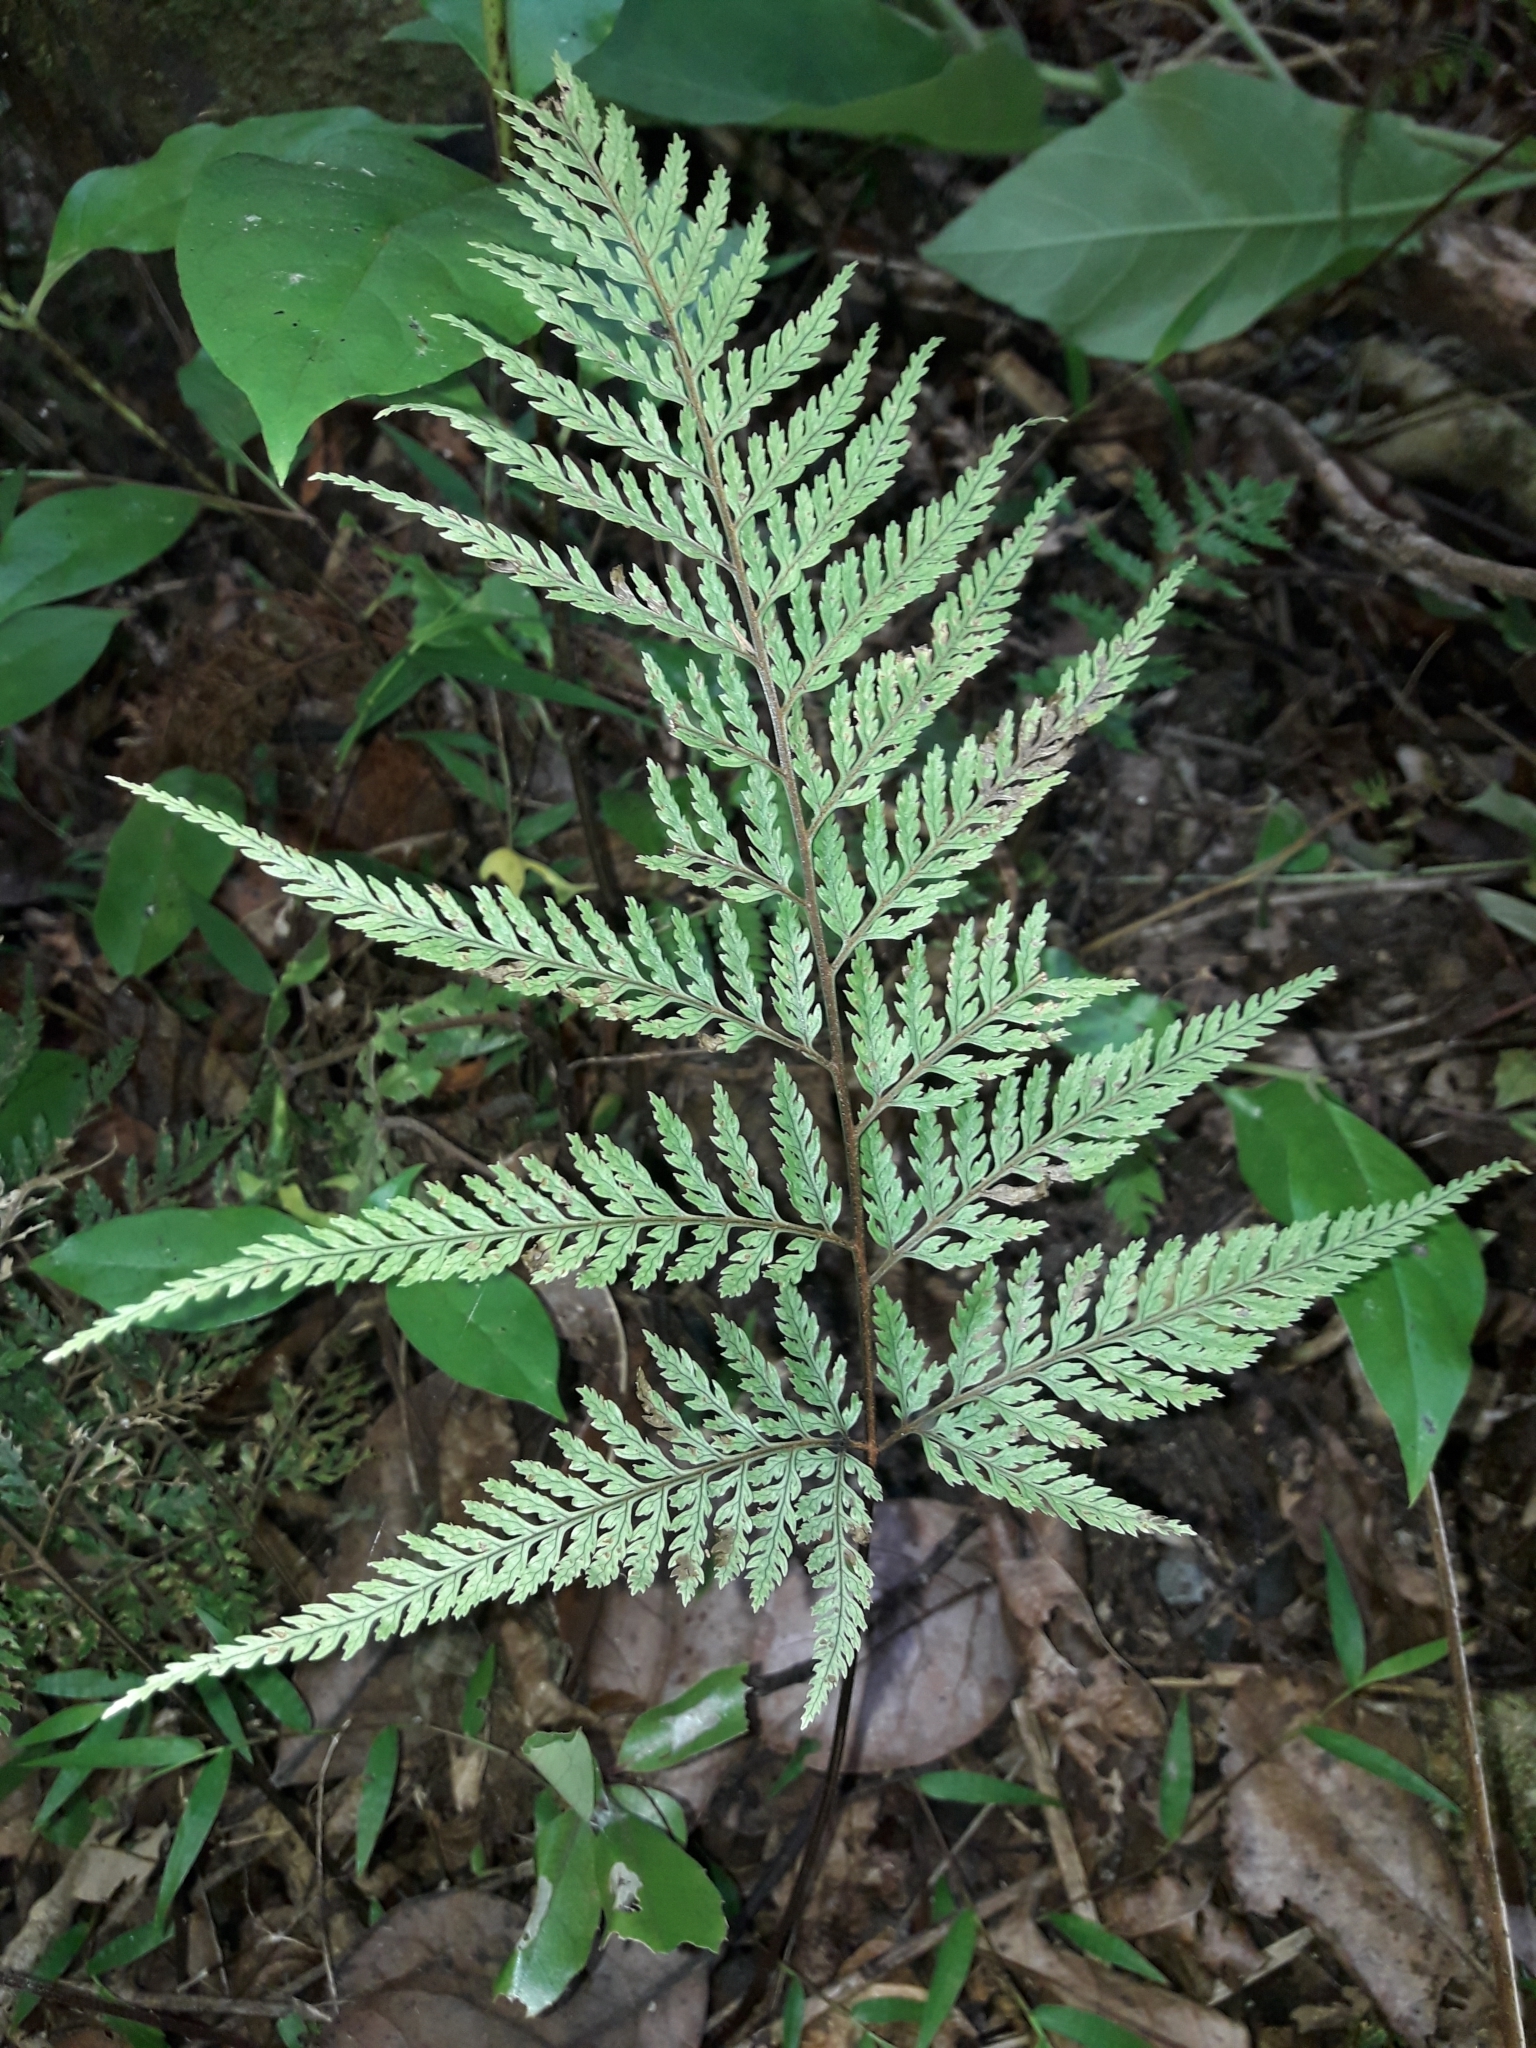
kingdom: Plantae
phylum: Tracheophyta
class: Polypodiopsida
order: Polypodiales
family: Dryopteridaceae
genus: Parapolystichum
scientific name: Parapolystichum glabellum
